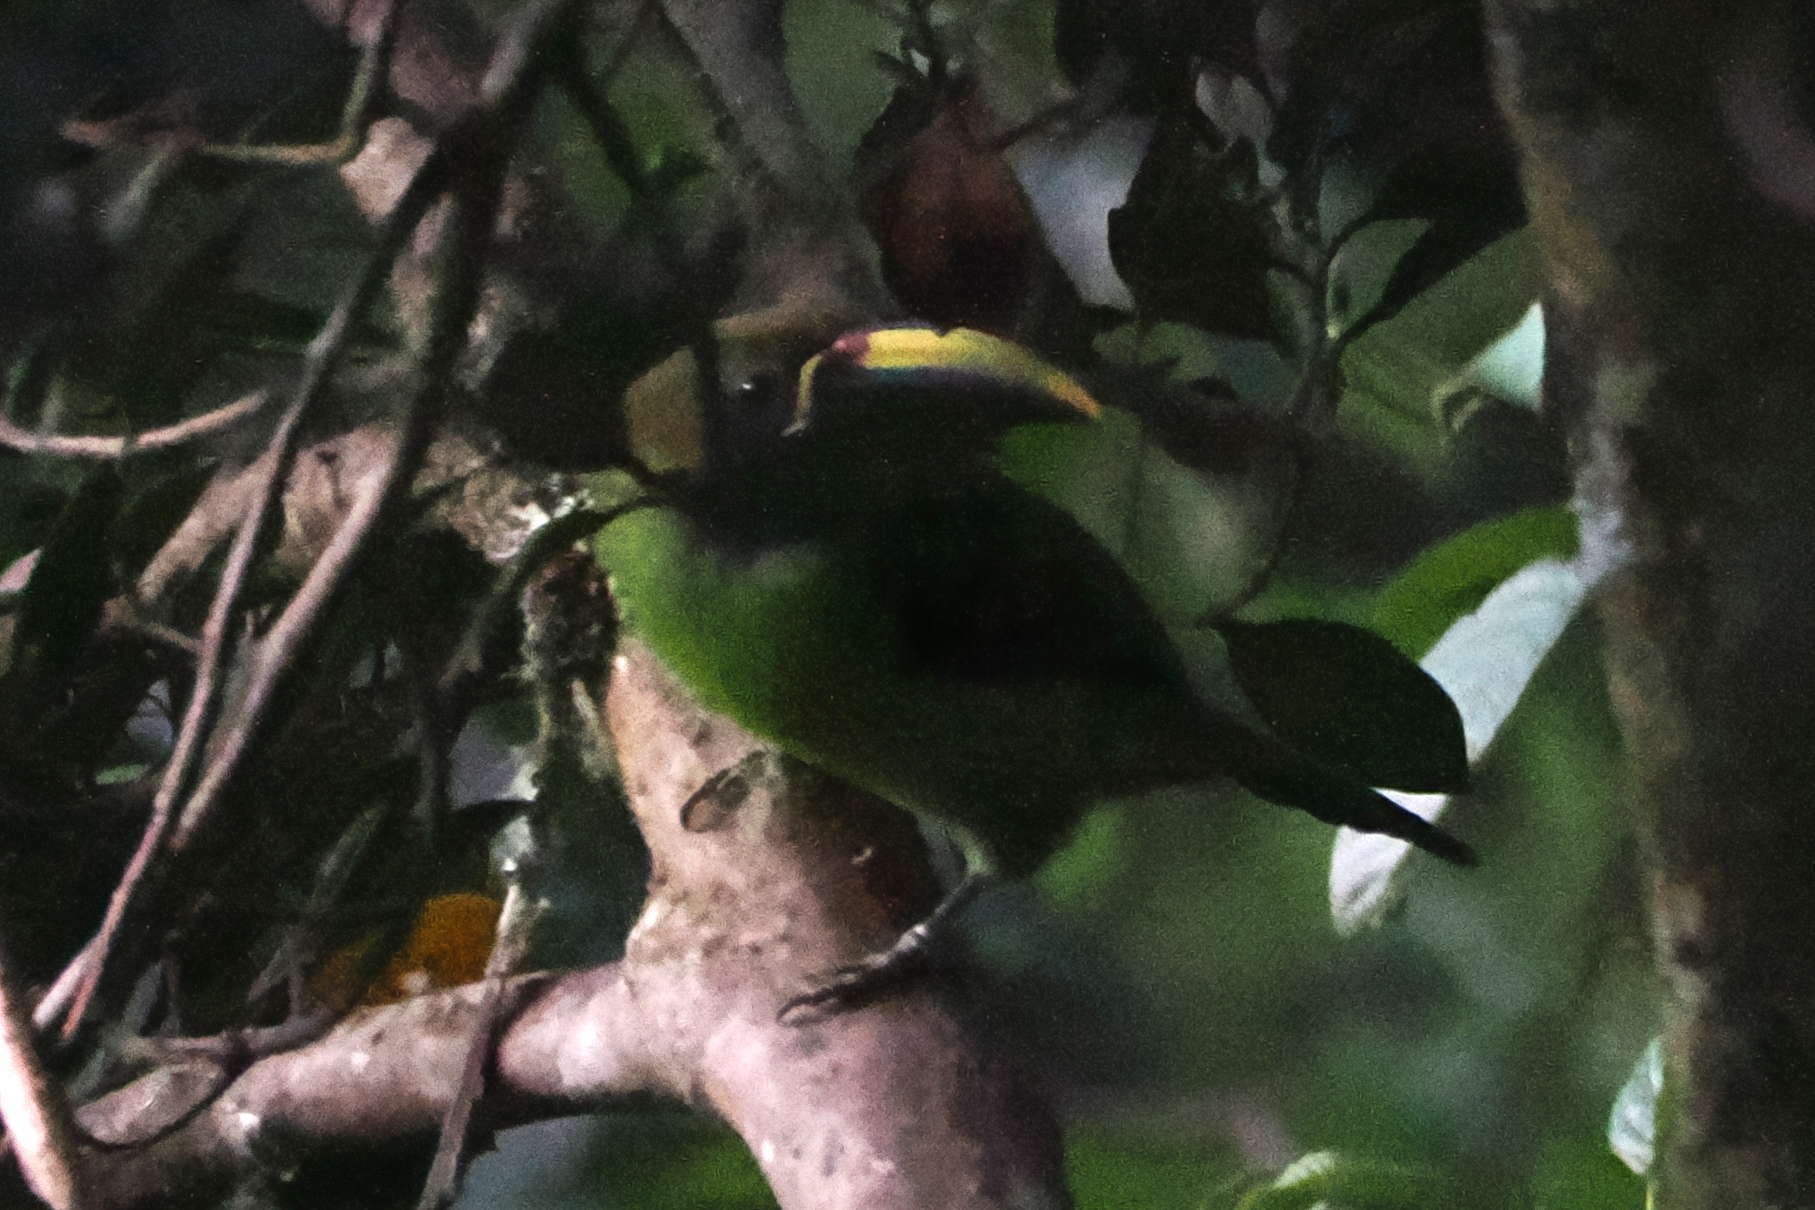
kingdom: Animalia
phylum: Chordata
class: Aves
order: Piciformes
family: Ramphastidae
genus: Aulacorhynchus
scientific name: Aulacorhynchus prasinus
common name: Emerald toucanet
